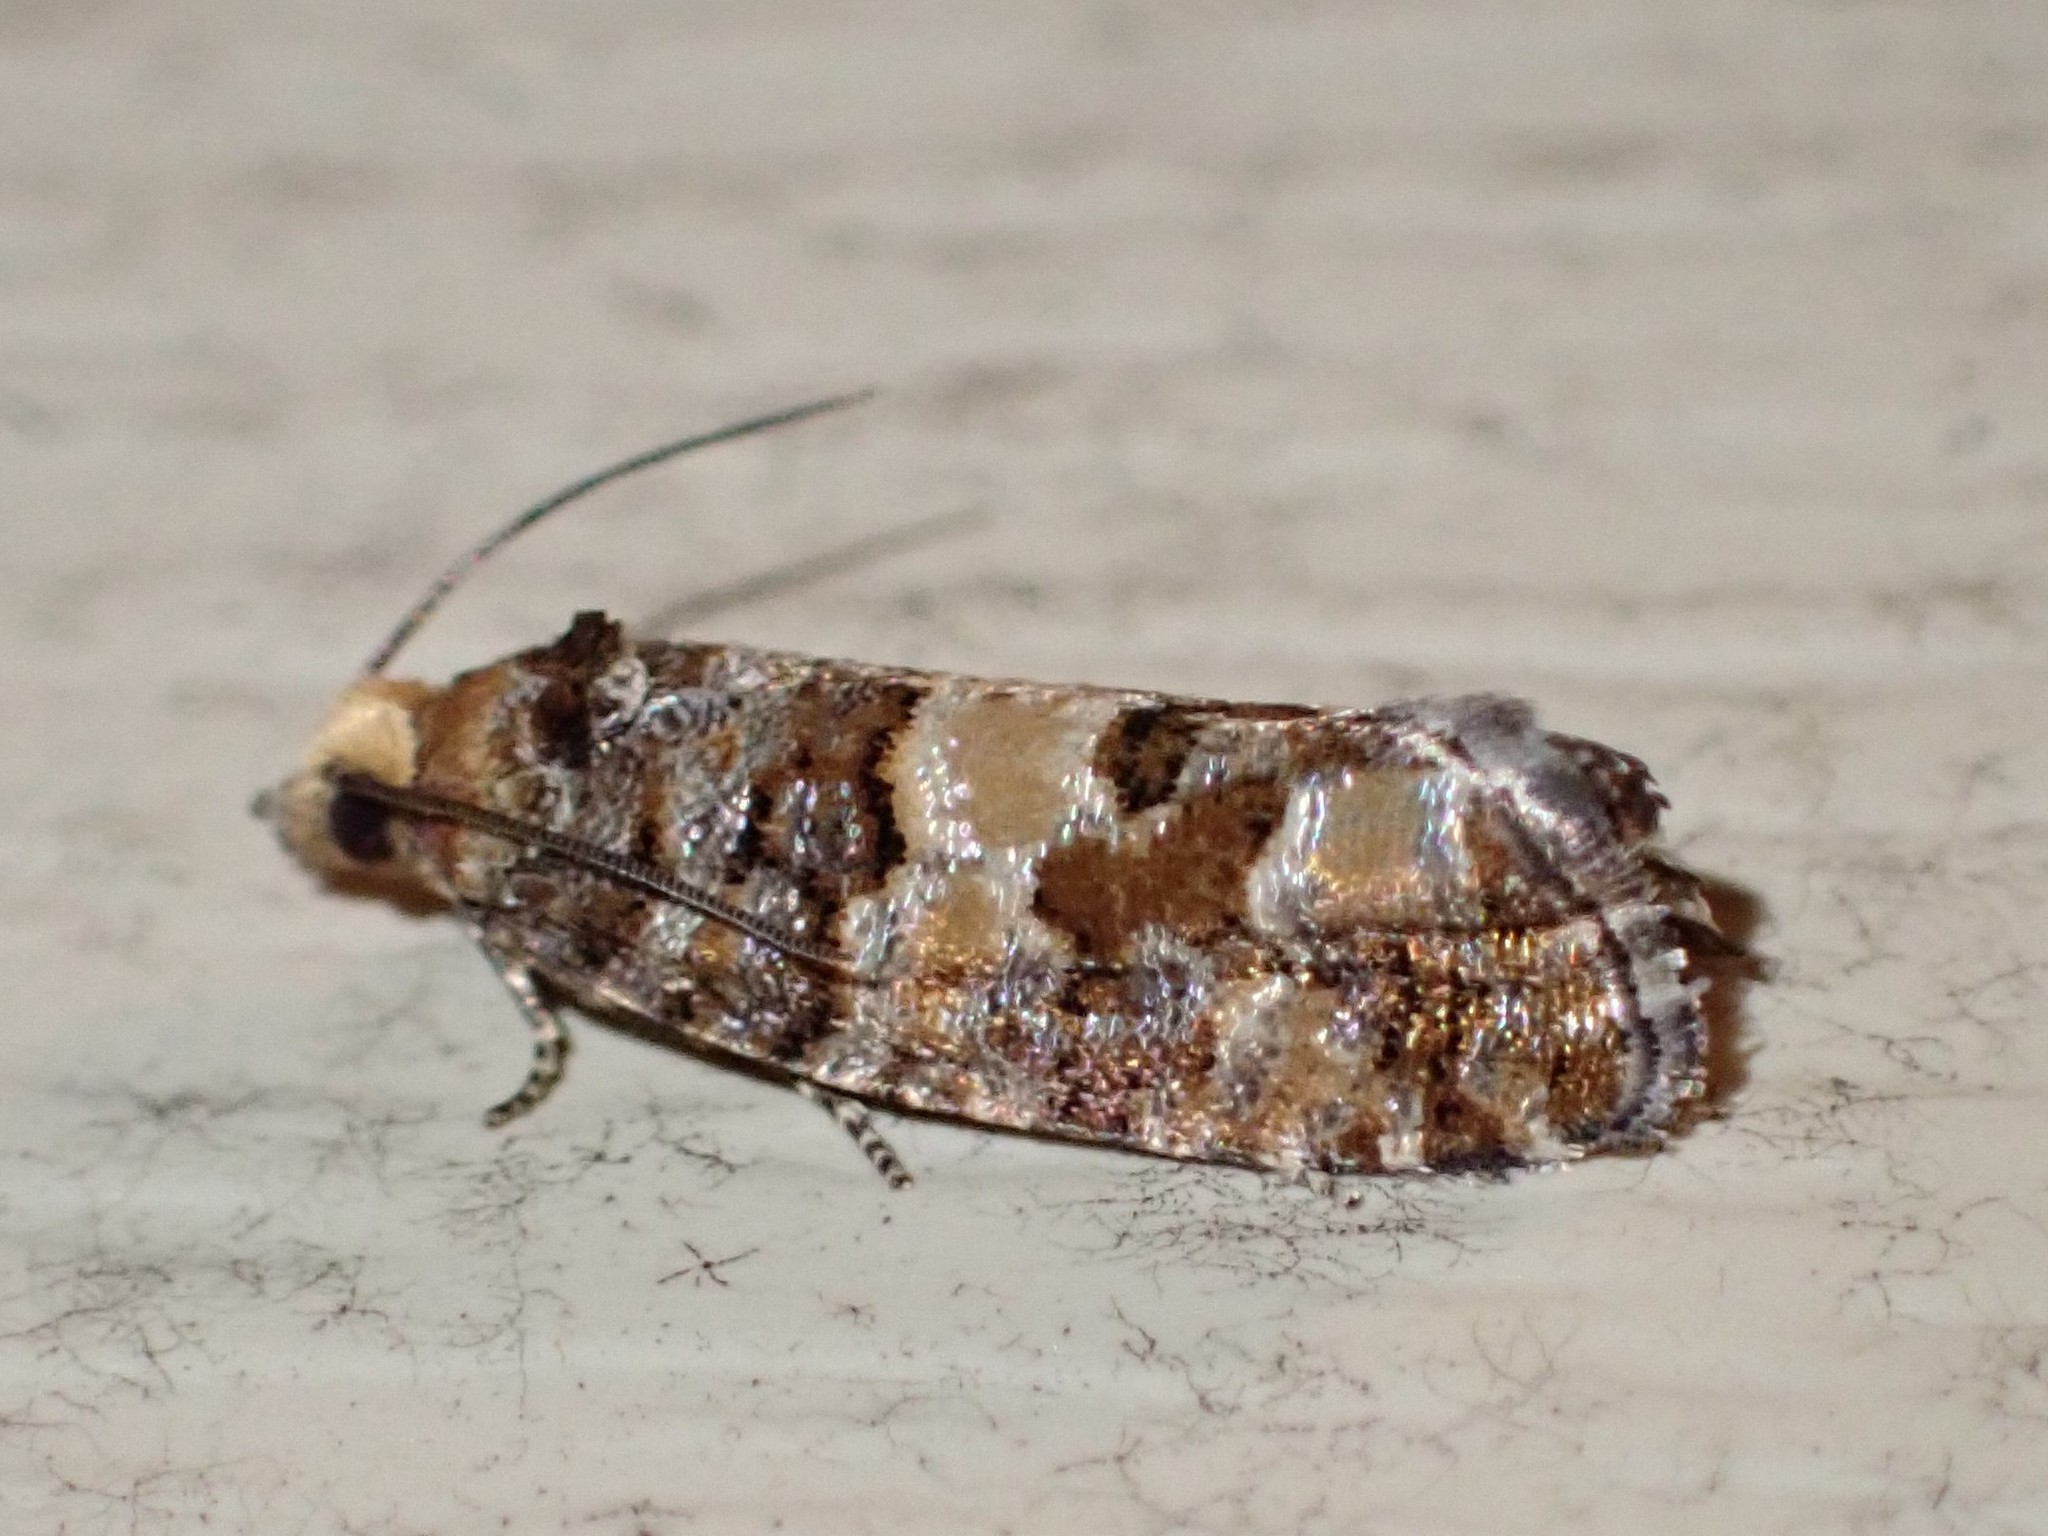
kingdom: Animalia
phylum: Arthropoda
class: Insecta
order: Lepidoptera
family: Tortricidae
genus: Eucopina
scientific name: Eucopina tocullionana
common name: White pinecone borer moth
